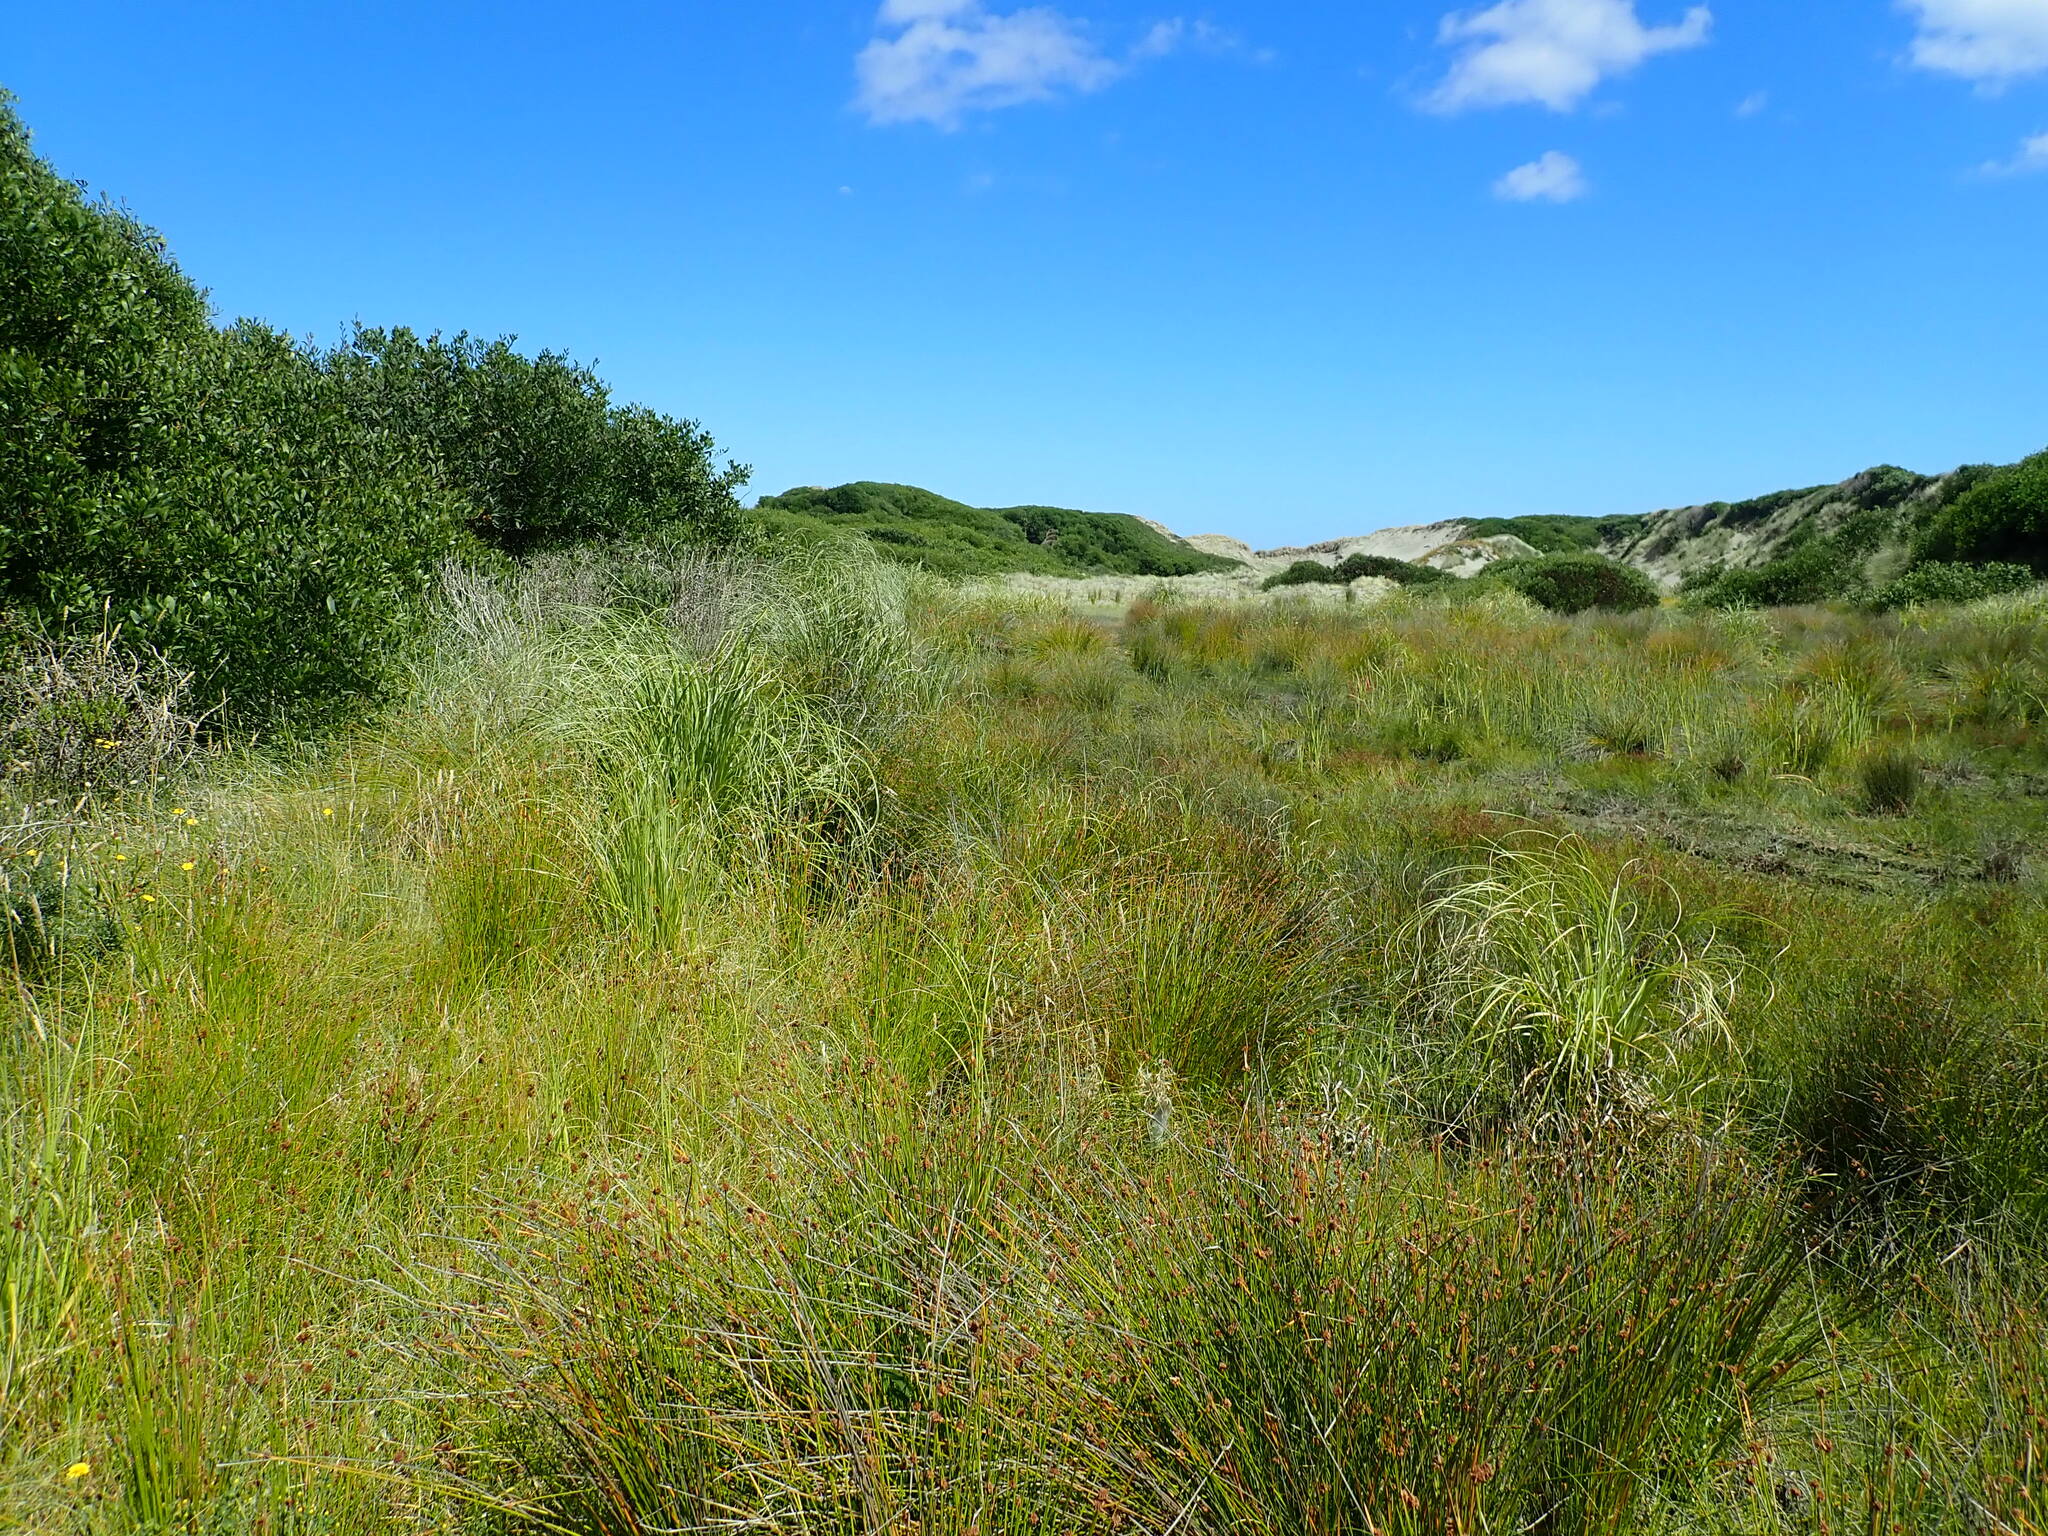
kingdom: Plantae
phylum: Tracheophyta
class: Magnoliopsida
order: Fabales
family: Fabaceae
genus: Acacia
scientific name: Acacia longifolia
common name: Sydney golden wattle
